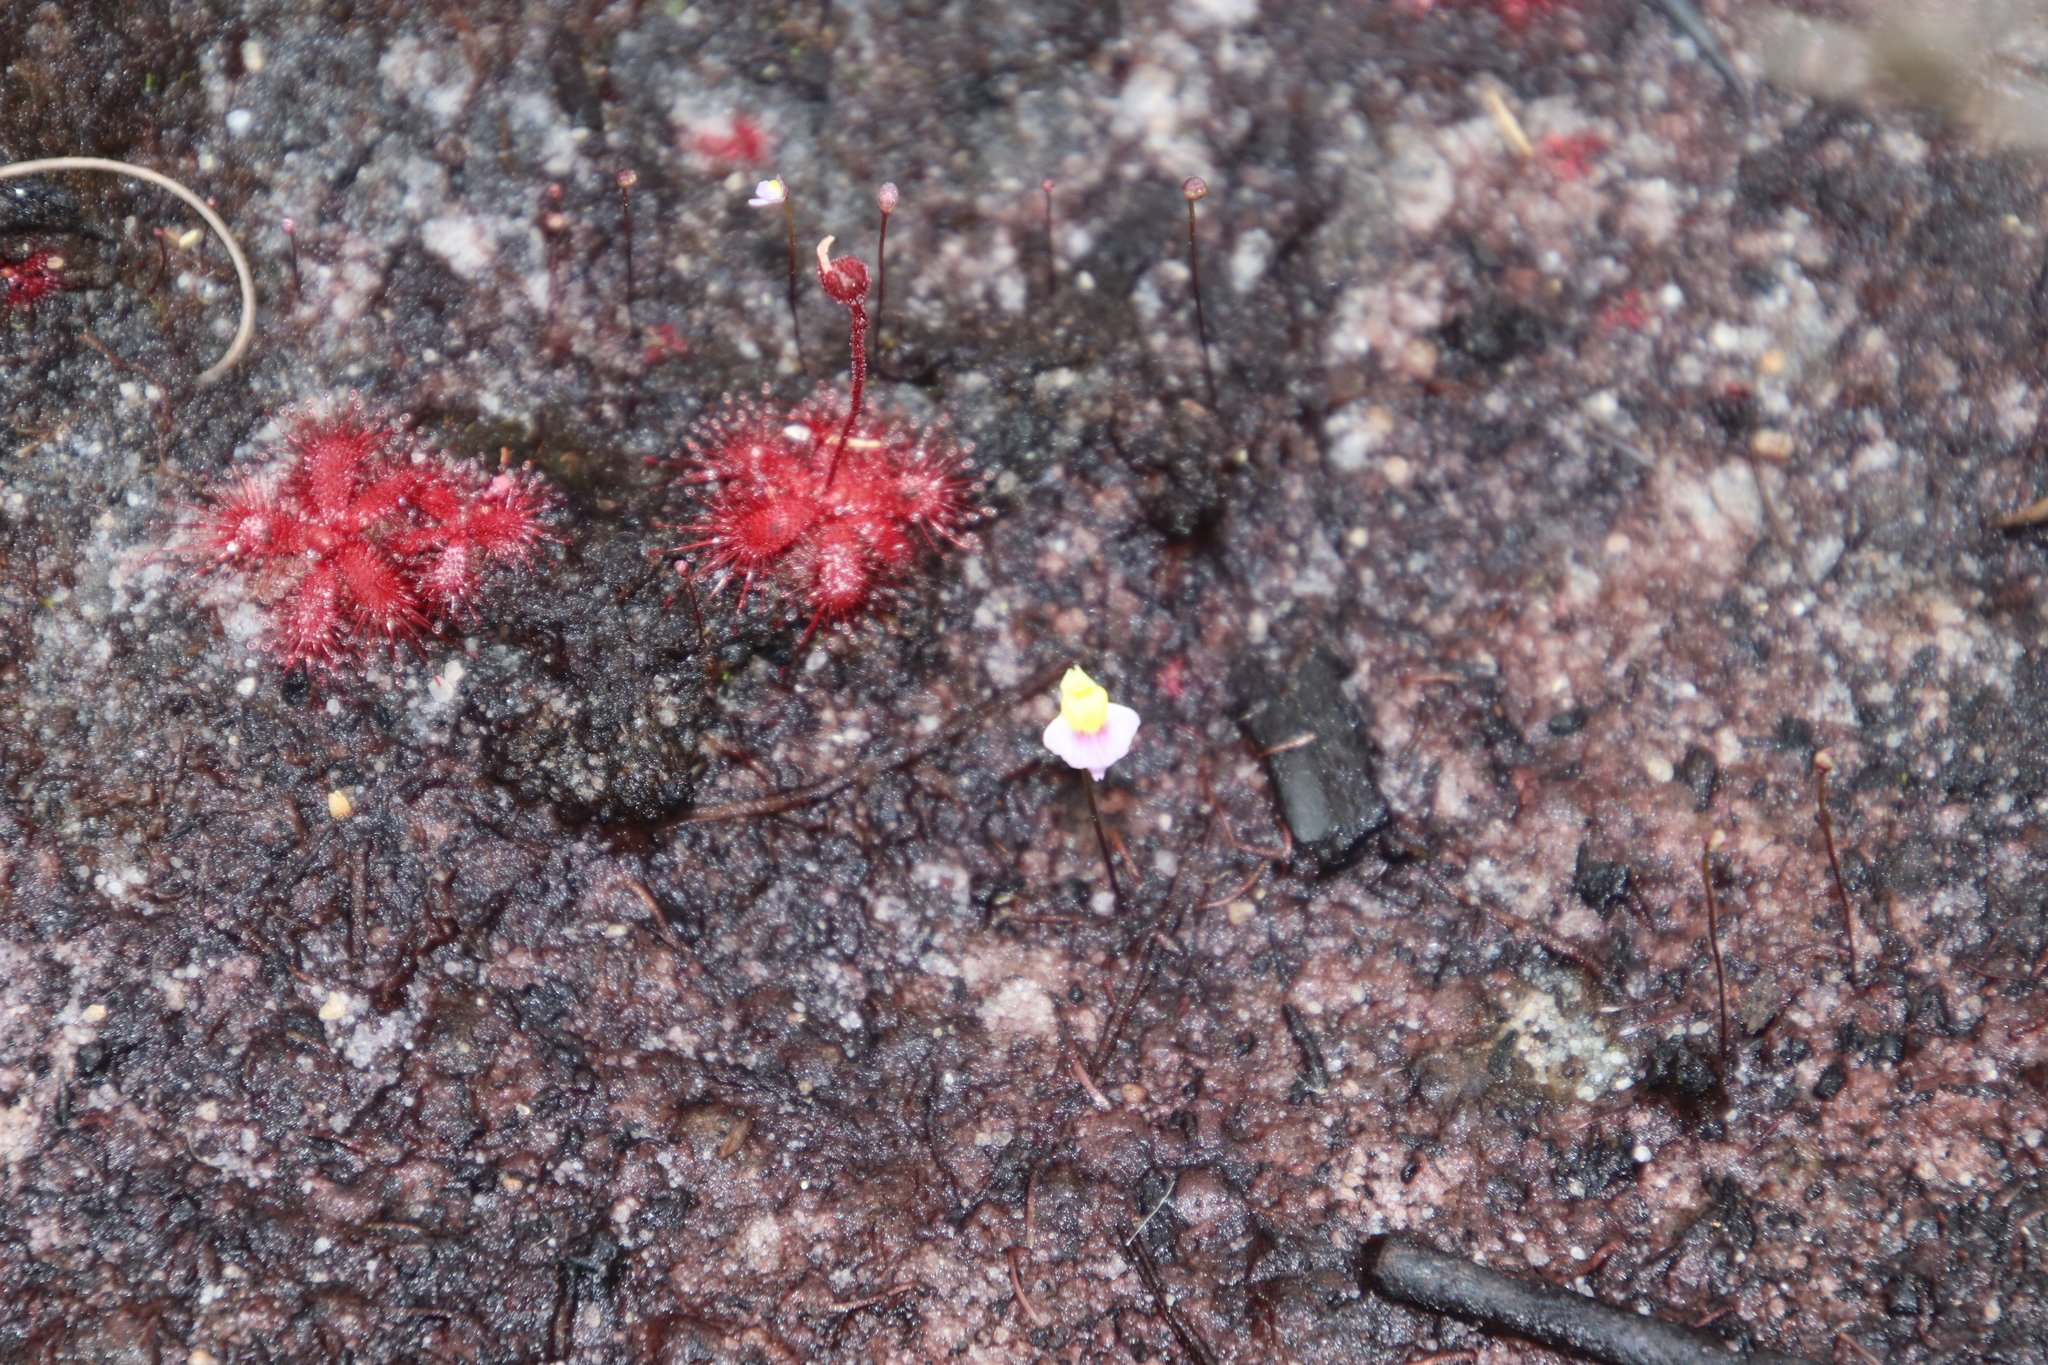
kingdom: Plantae
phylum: Tracheophyta
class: Magnoliopsida
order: Lamiales
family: Lentibulariaceae
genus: Utricularia
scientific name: Utricularia bisquamata
